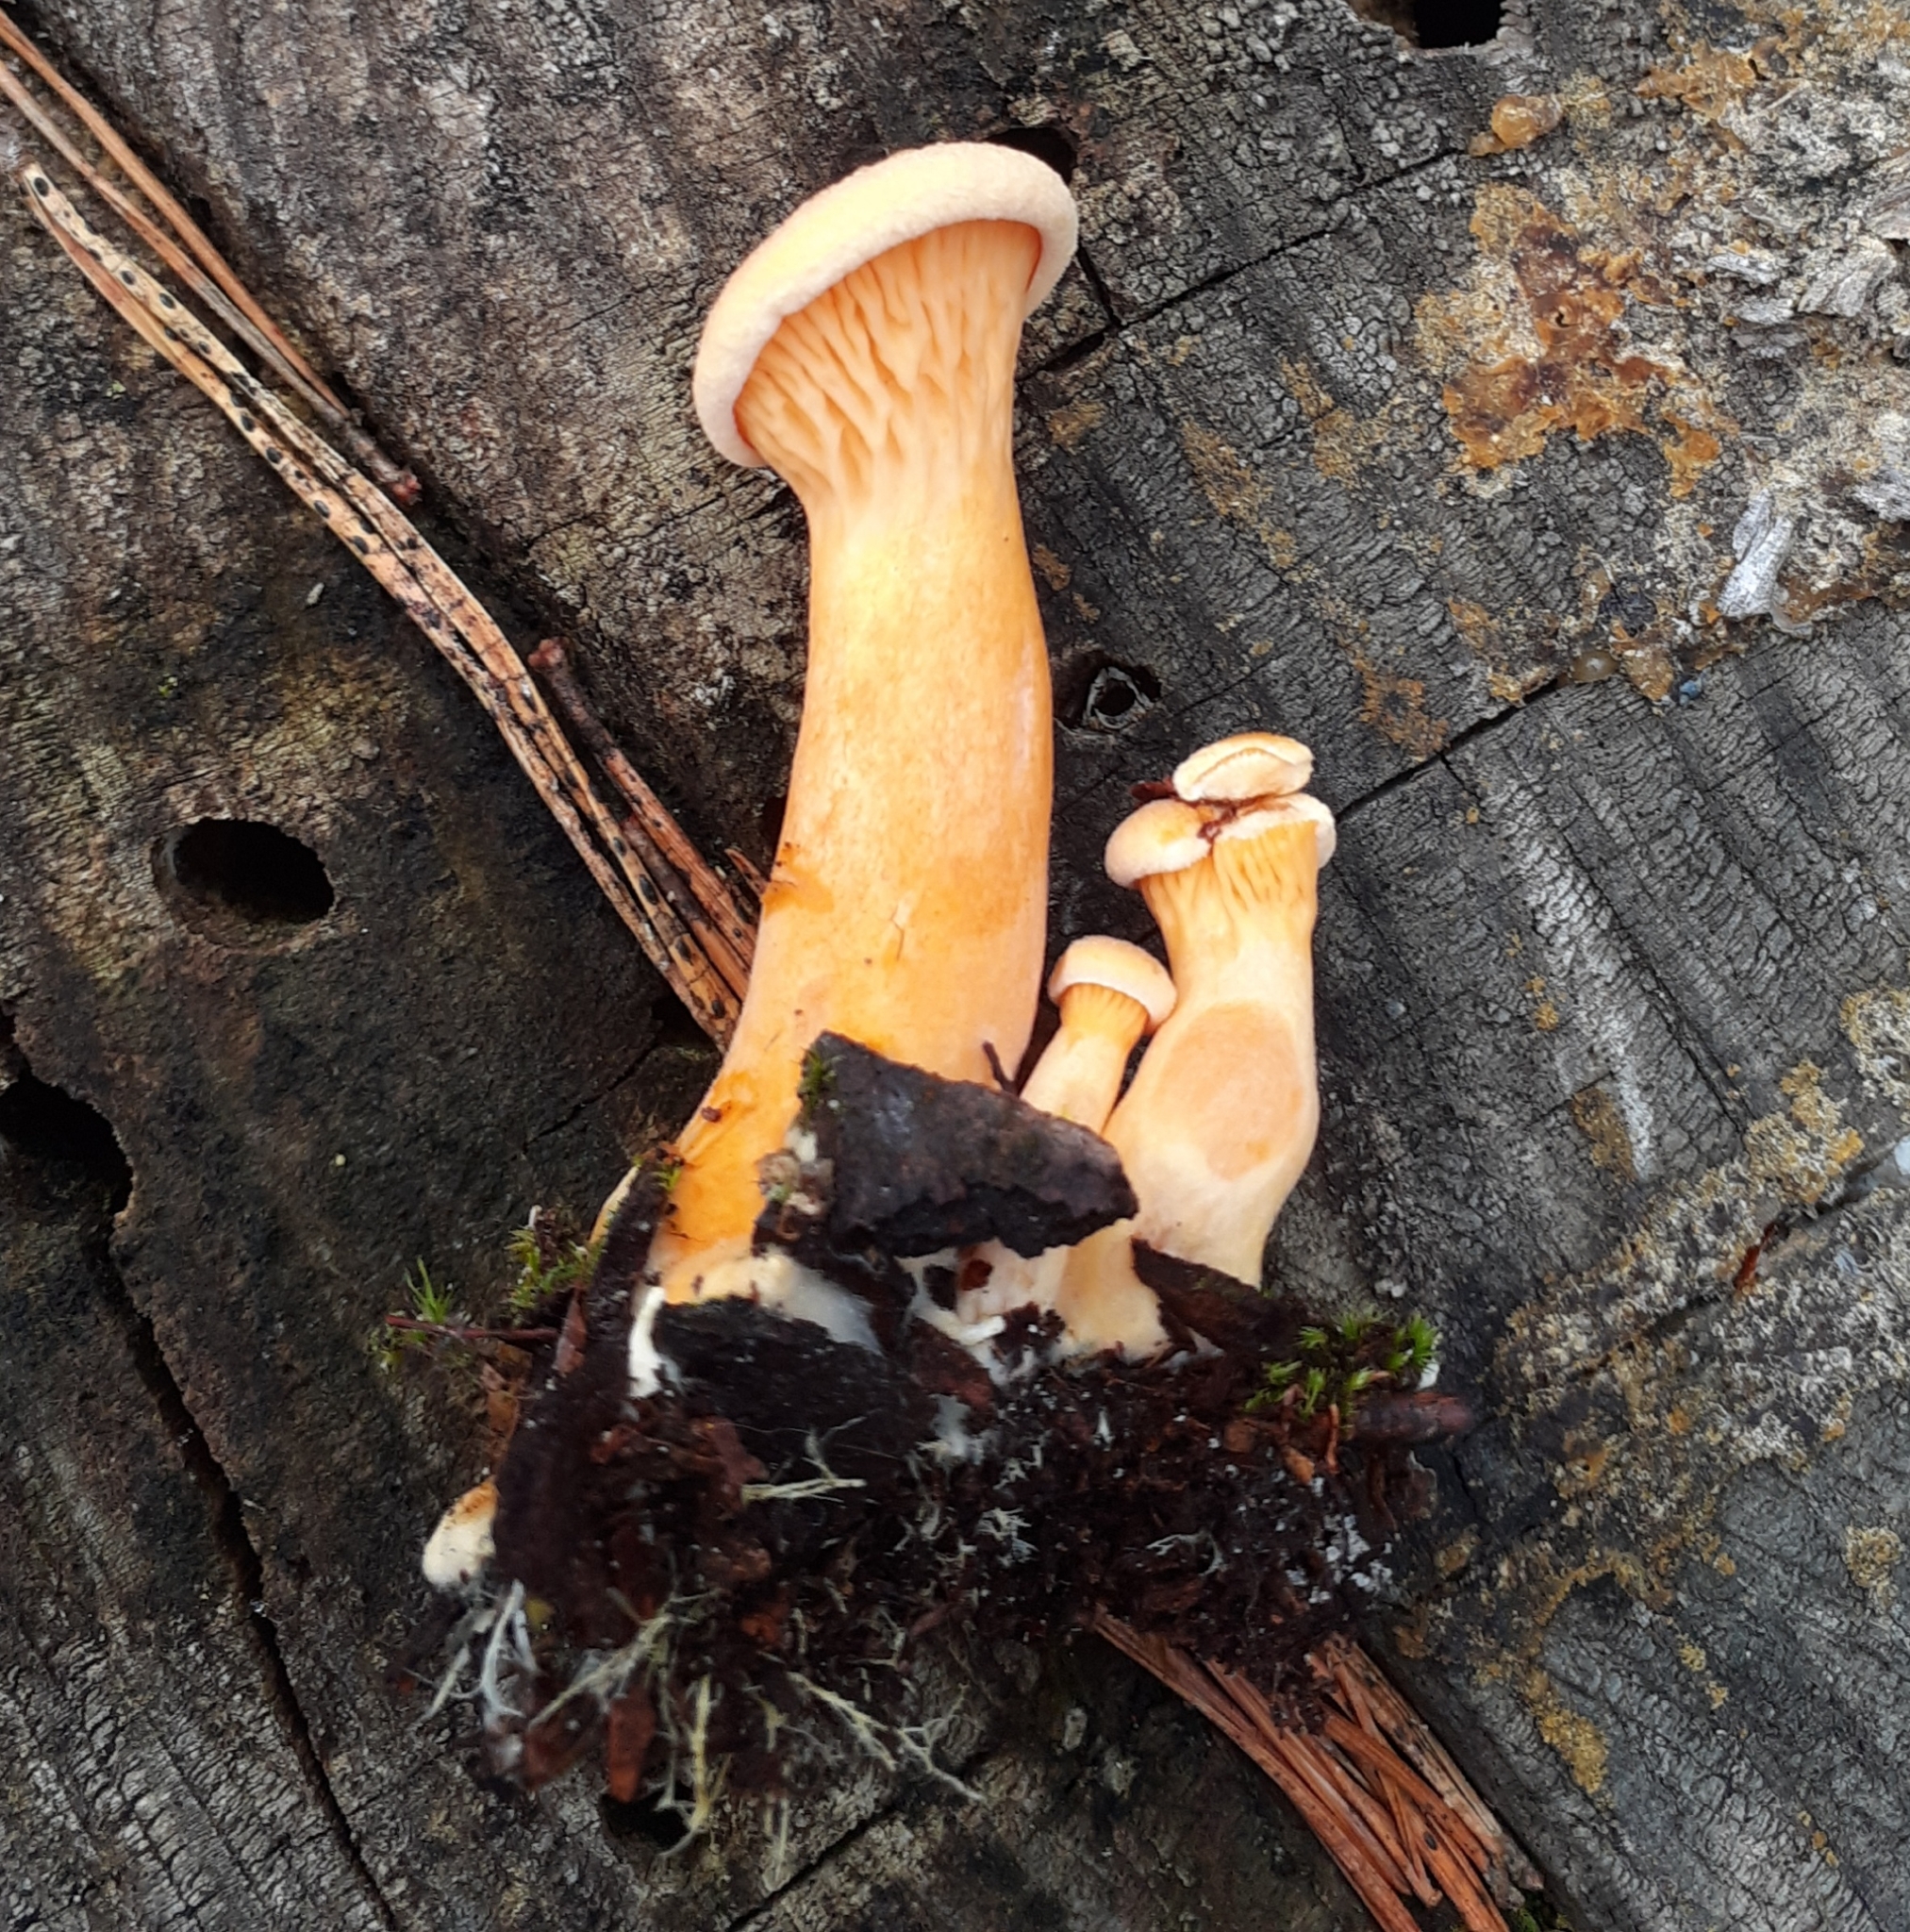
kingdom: Fungi
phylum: Basidiomycota
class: Agaricomycetes
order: Boletales
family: Hygrophoropsidaceae
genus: Hygrophoropsis
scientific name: Hygrophoropsis aurantiaca
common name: False chanterelle
